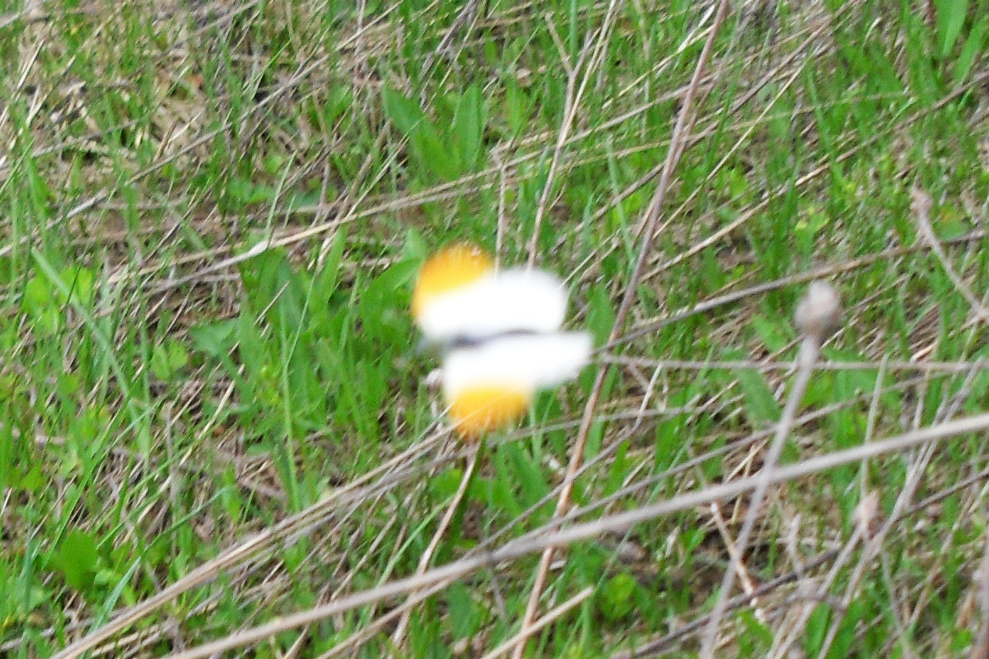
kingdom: Animalia
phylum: Arthropoda
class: Insecta
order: Lepidoptera
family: Pieridae
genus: Anthocharis
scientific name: Anthocharis cardamines
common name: Orange-tip
